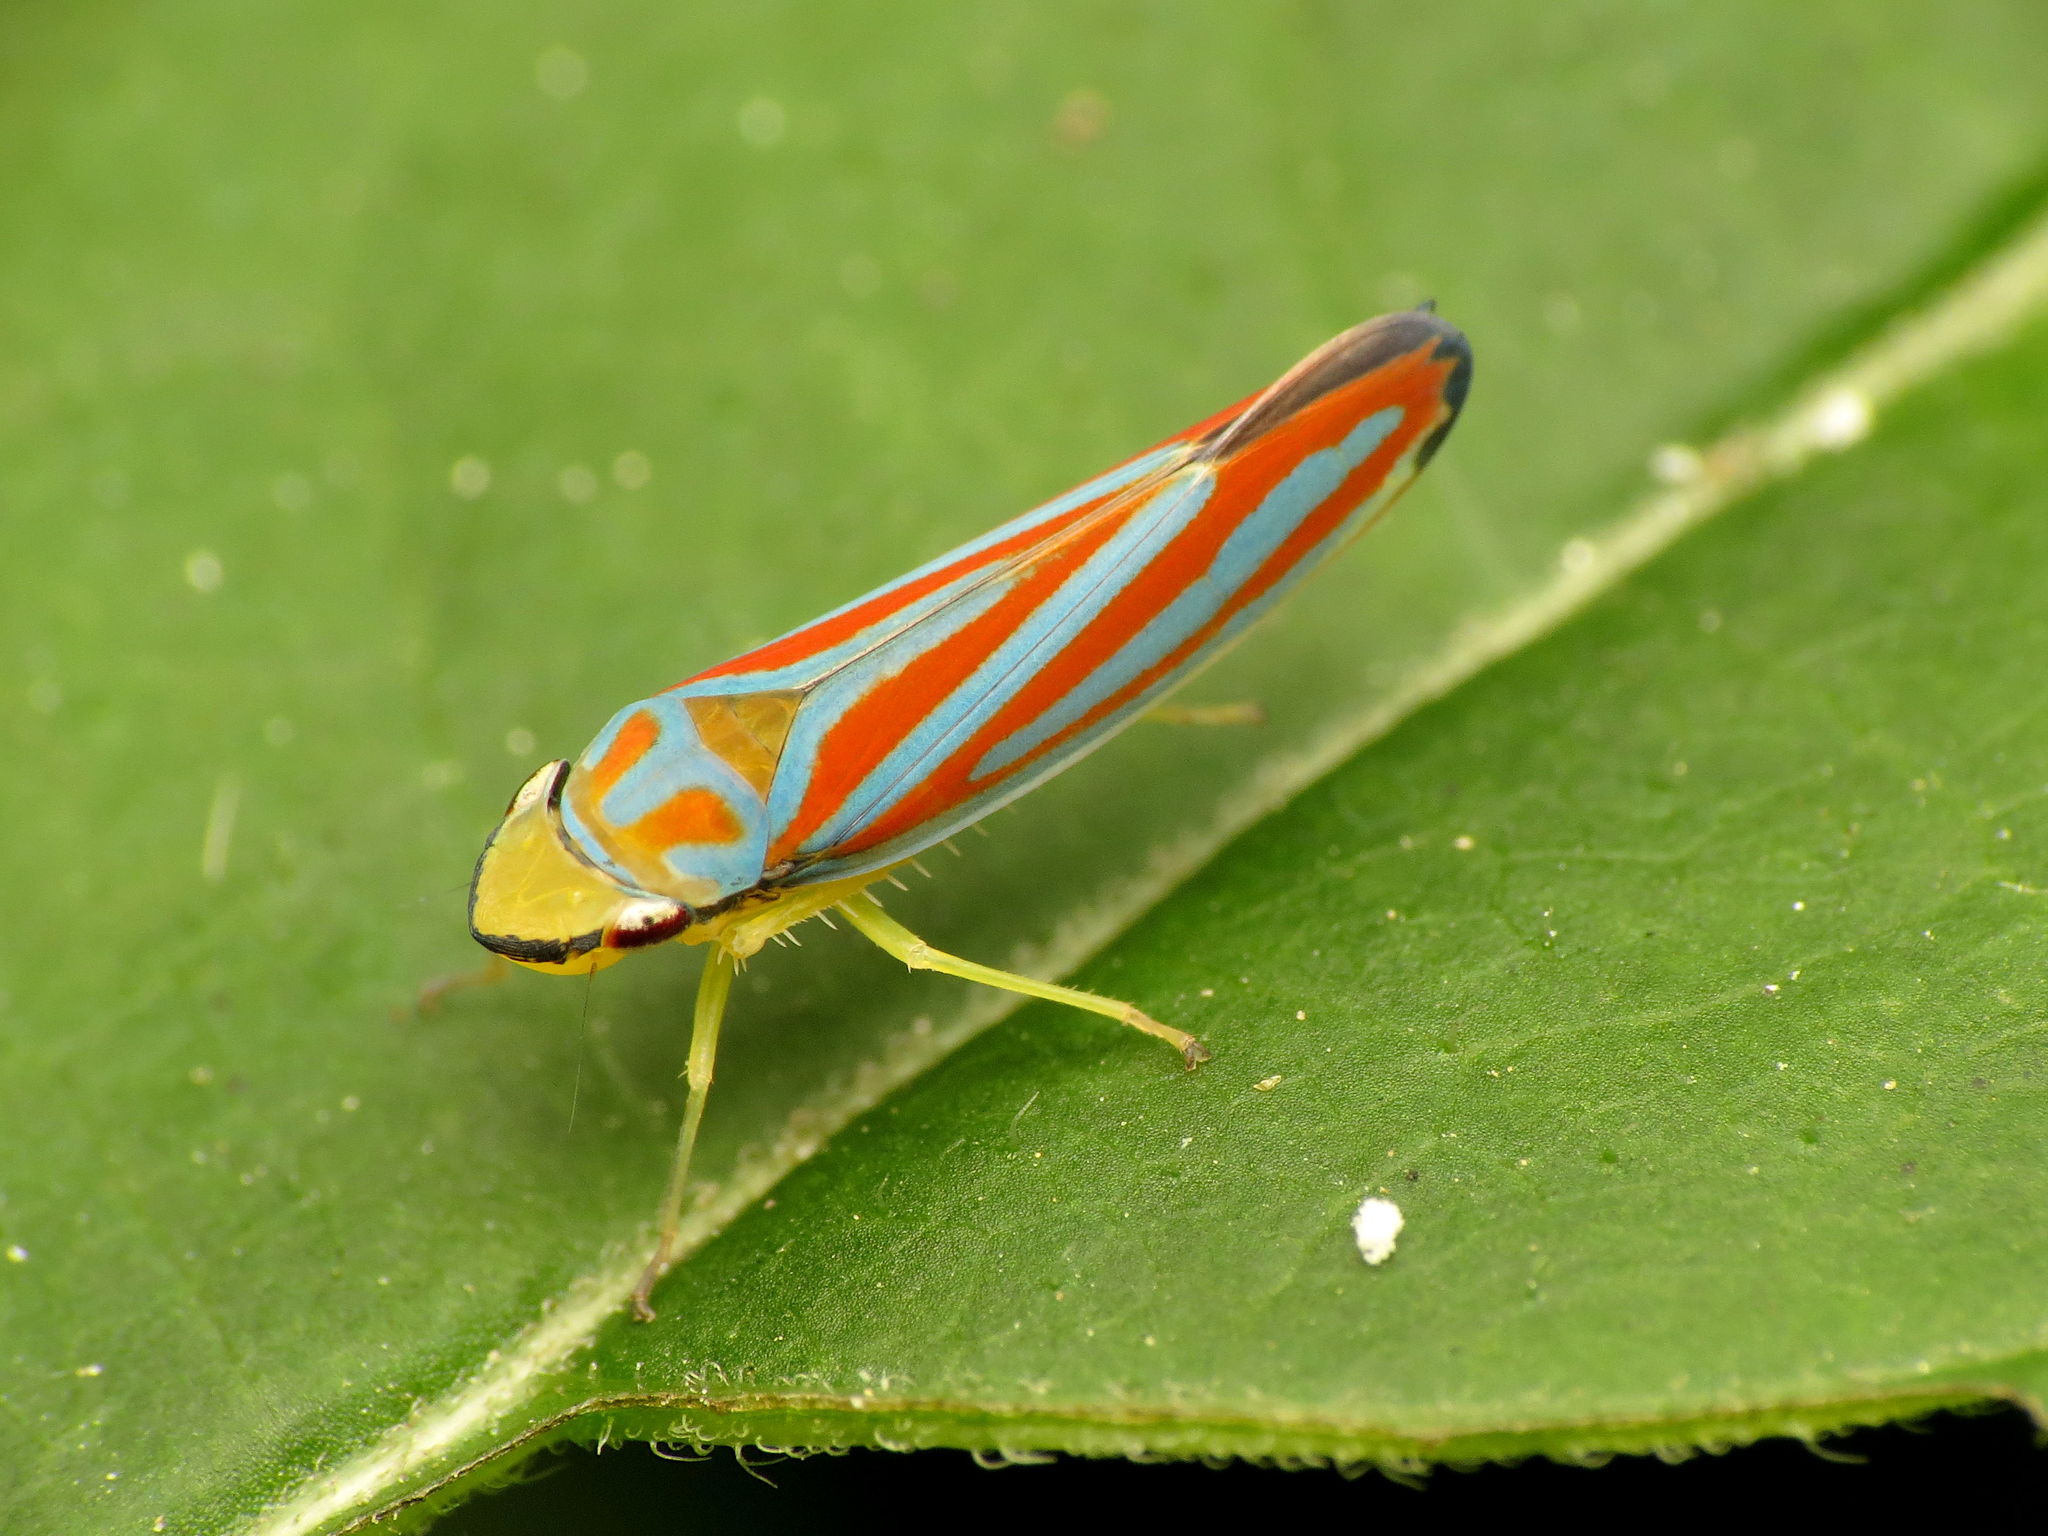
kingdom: Animalia
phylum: Arthropoda
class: Insecta
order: Hemiptera
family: Cicadellidae
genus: Graphocephala
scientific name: Graphocephala coccinea
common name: Candy-striped leafhopper
